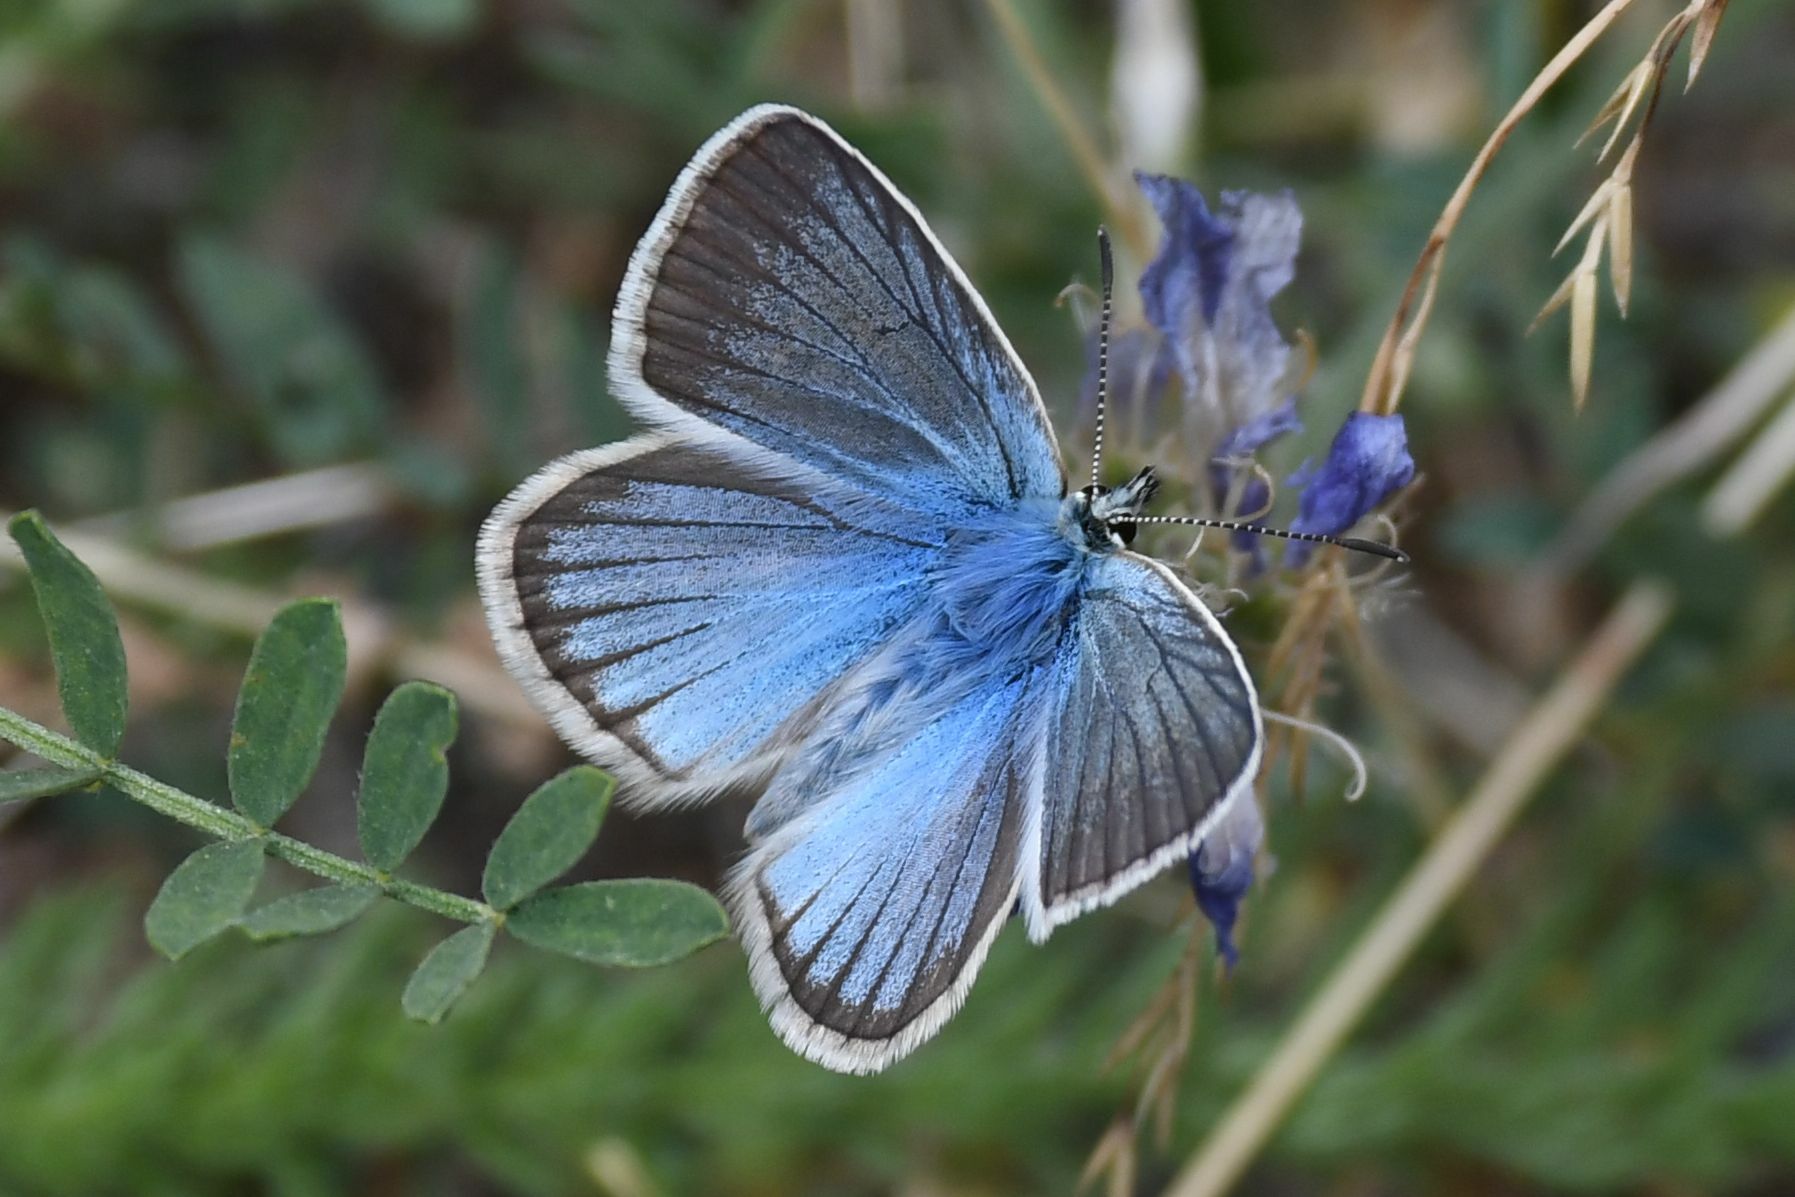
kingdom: Animalia
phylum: Arthropoda
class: Insecta
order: Lepidoptera
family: Lycaenidae
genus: Agrodiaetus
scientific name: Agrodiaetus damon
